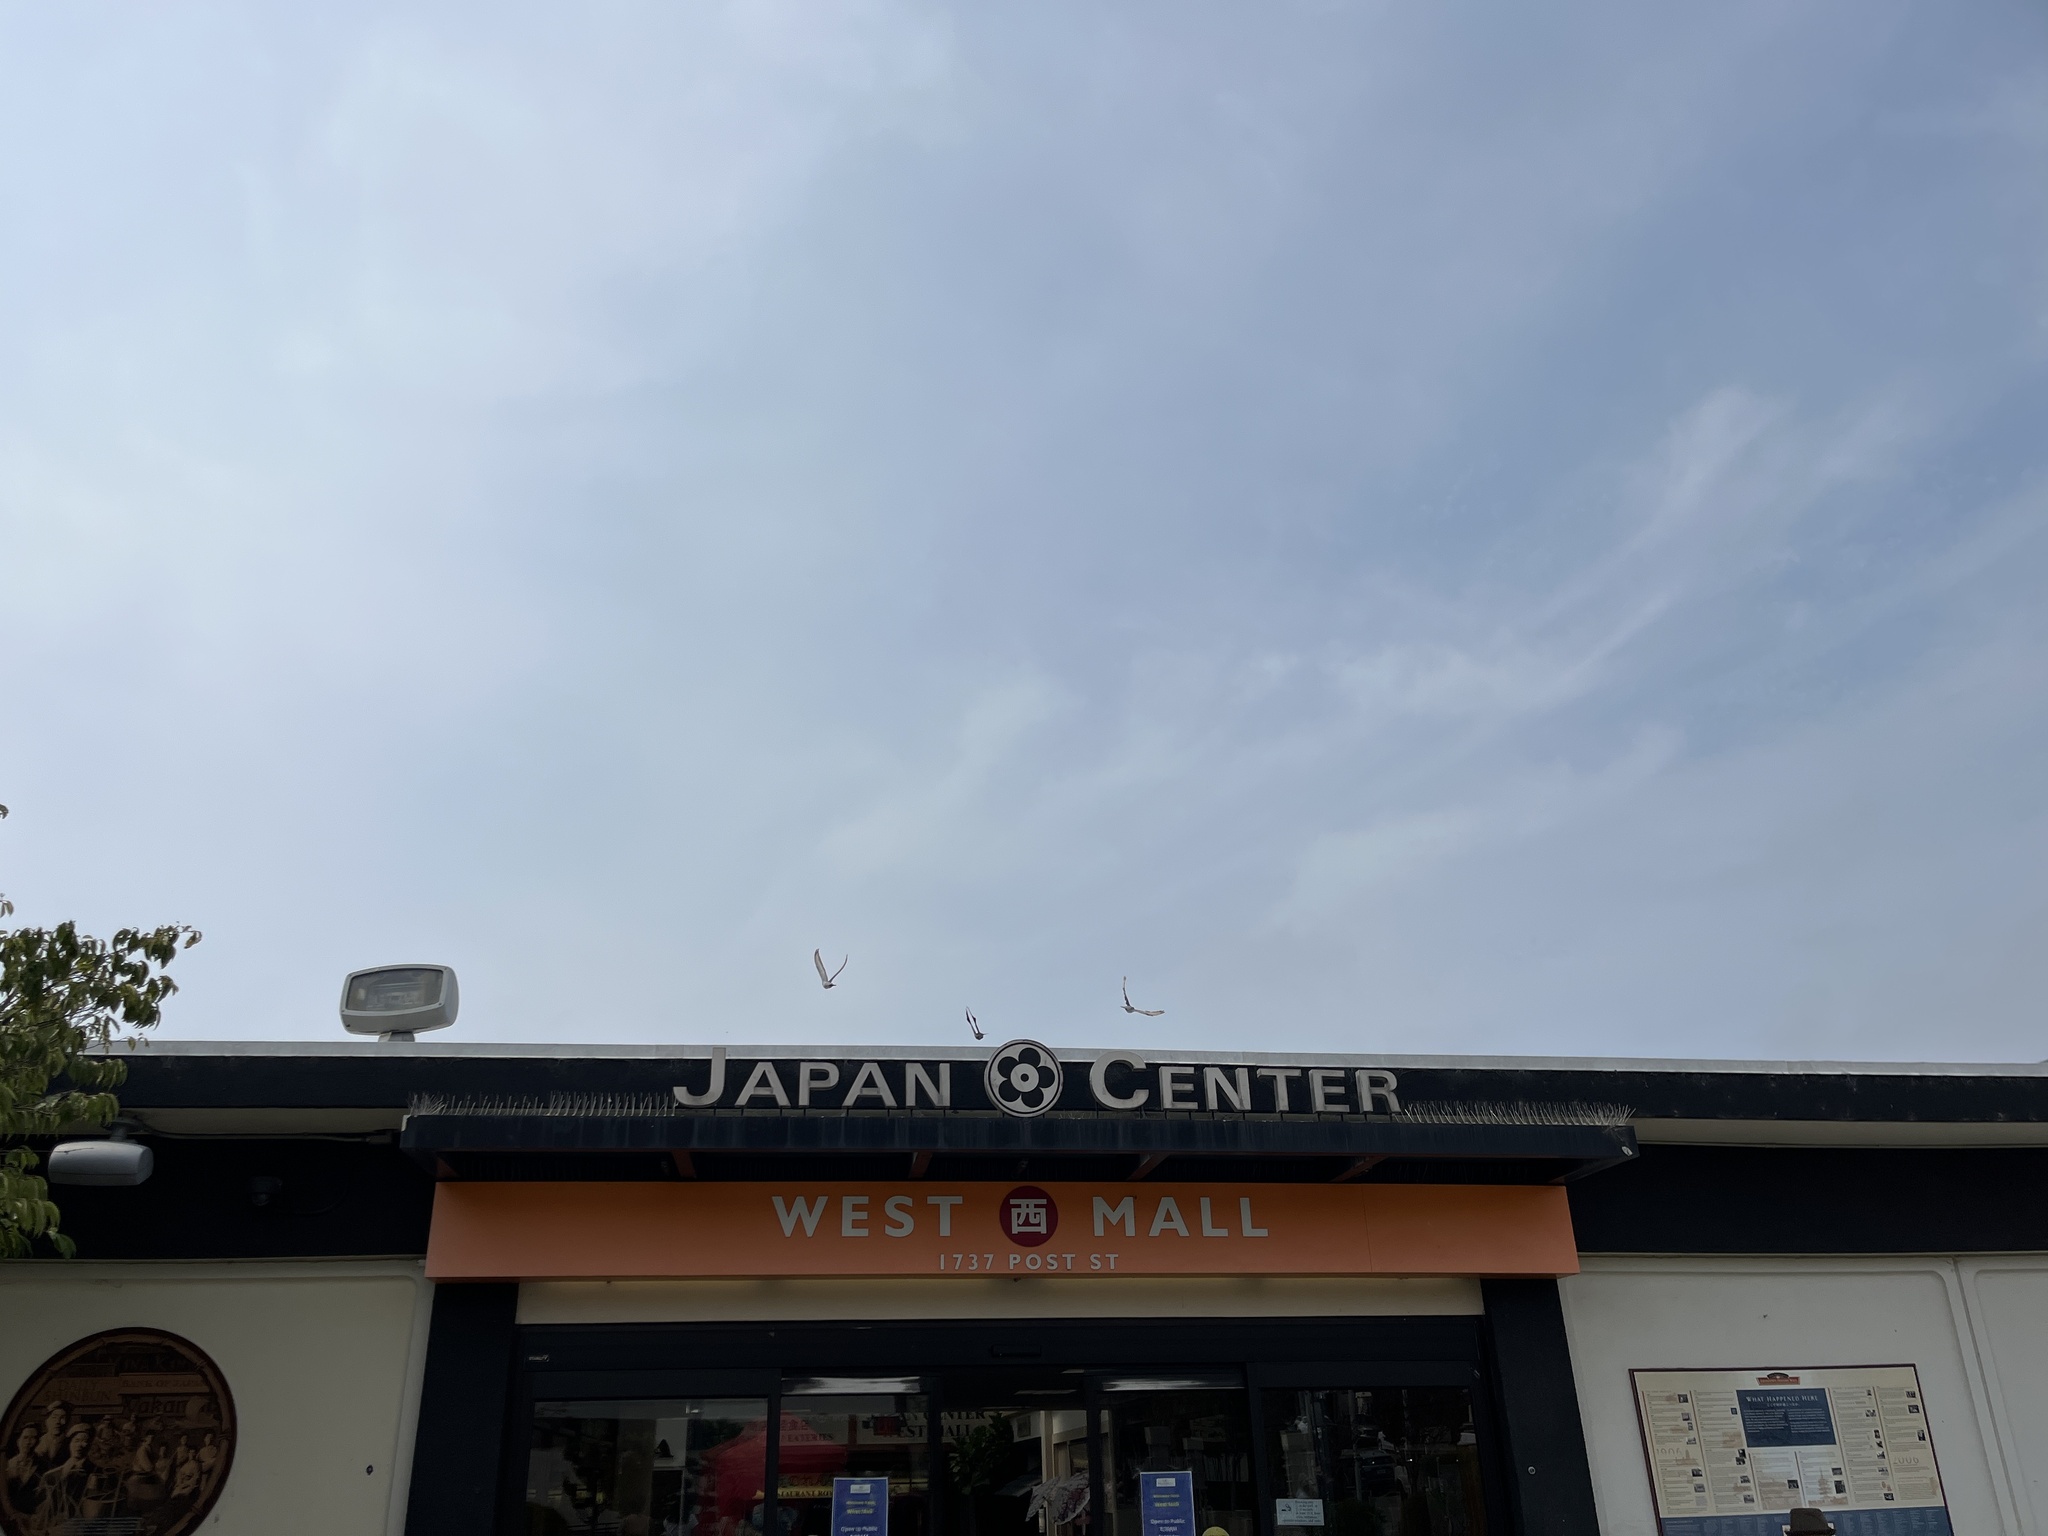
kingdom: Animalia
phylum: Chordata
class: Aves
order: Columbiformes
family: Columbidae
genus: Columba
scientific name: Columba livia
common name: Rock pigeon
